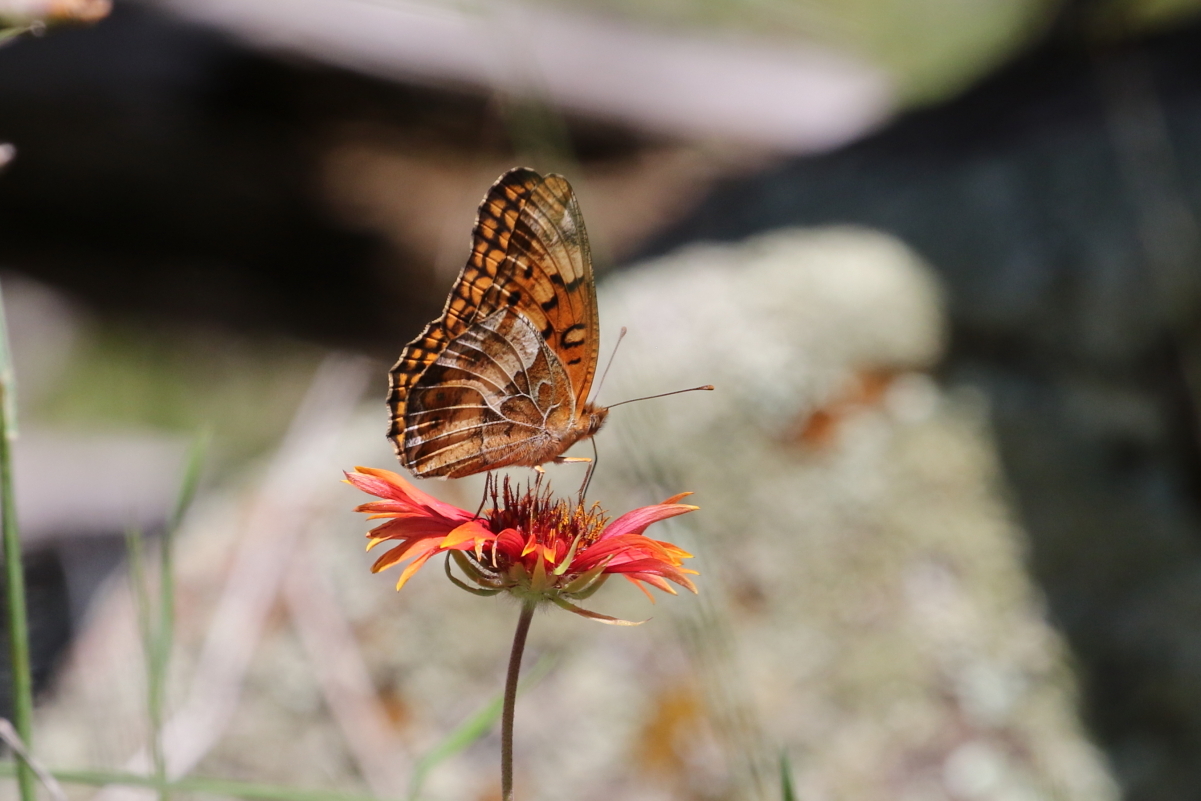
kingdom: Animalia
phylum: Arthropoda
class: Insecta
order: Lepidoptera
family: Nymphalidae
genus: Euptoieta
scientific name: Euptoieta claudia
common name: Variegated fritillary
